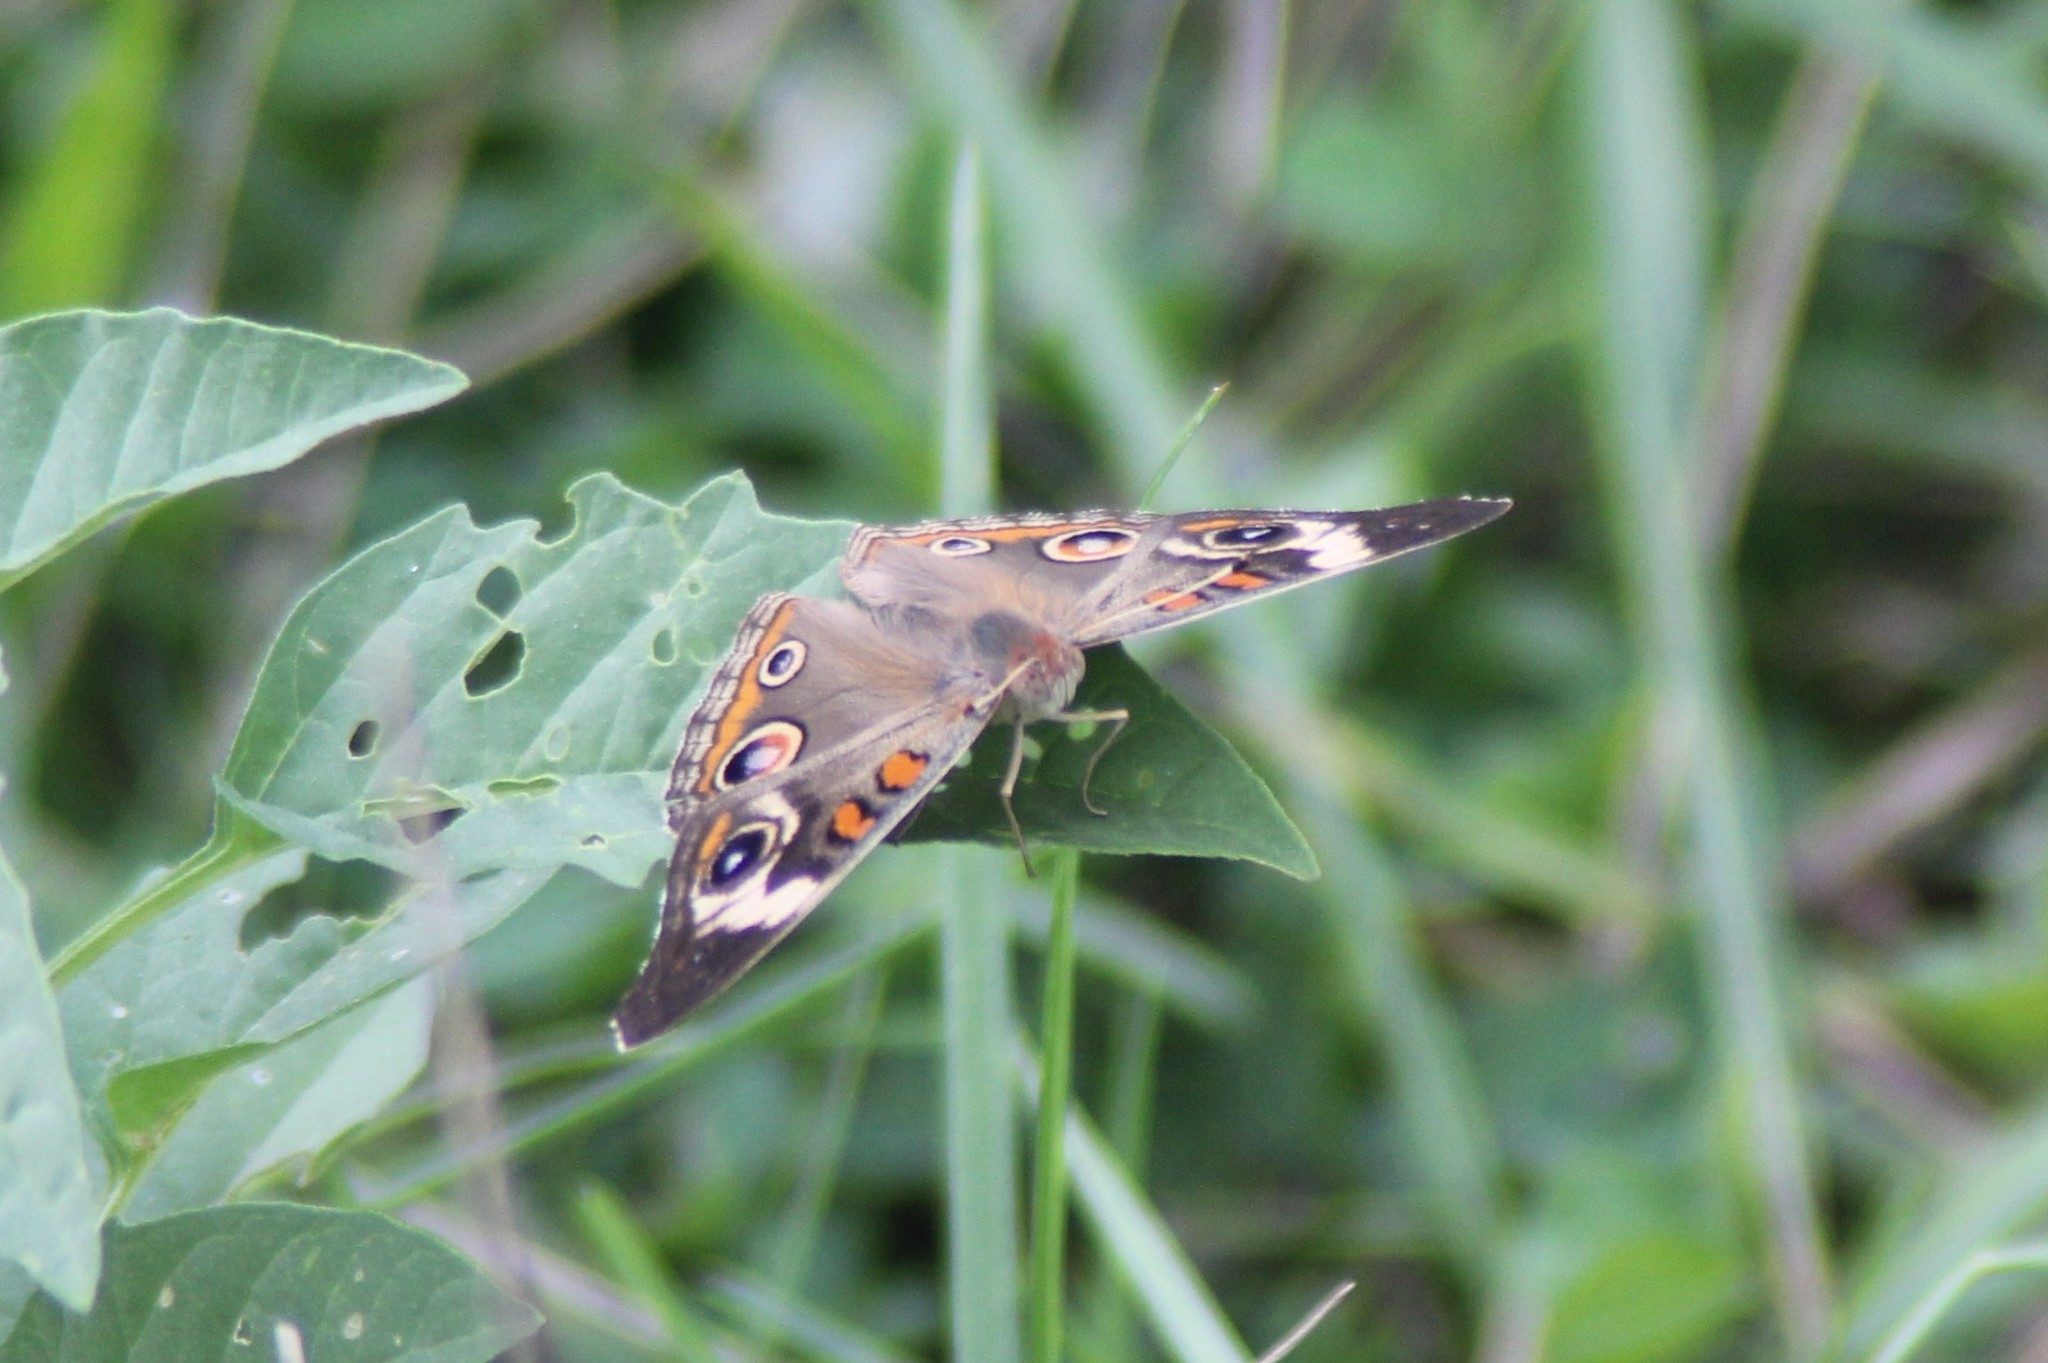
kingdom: Animalia
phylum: Arthropoda
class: Insecta
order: Lepidoptera
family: Nymphalidae
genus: Junonia
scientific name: Junonia coenia
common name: Common buckeye
